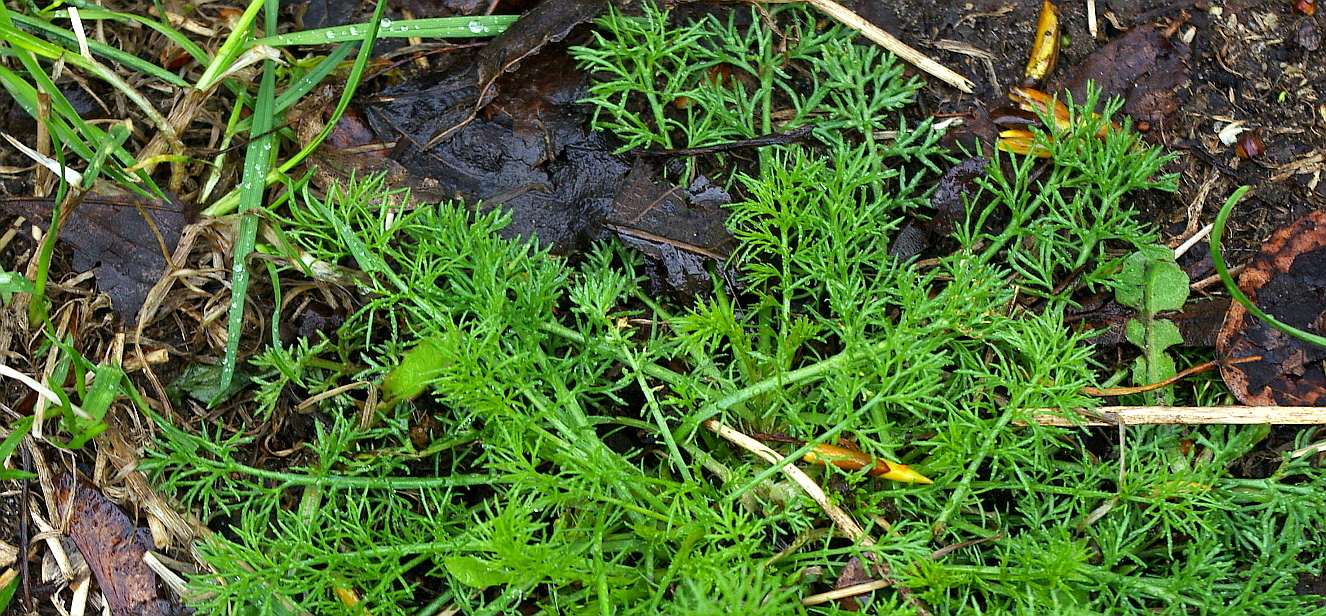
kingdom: Plantae
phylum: Tracheophyta
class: Magnoliopsida
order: Asterales
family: Asteraceae
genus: Tripleurospermum
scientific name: Tripleurospermum inodorum
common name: Scentless mayweed
